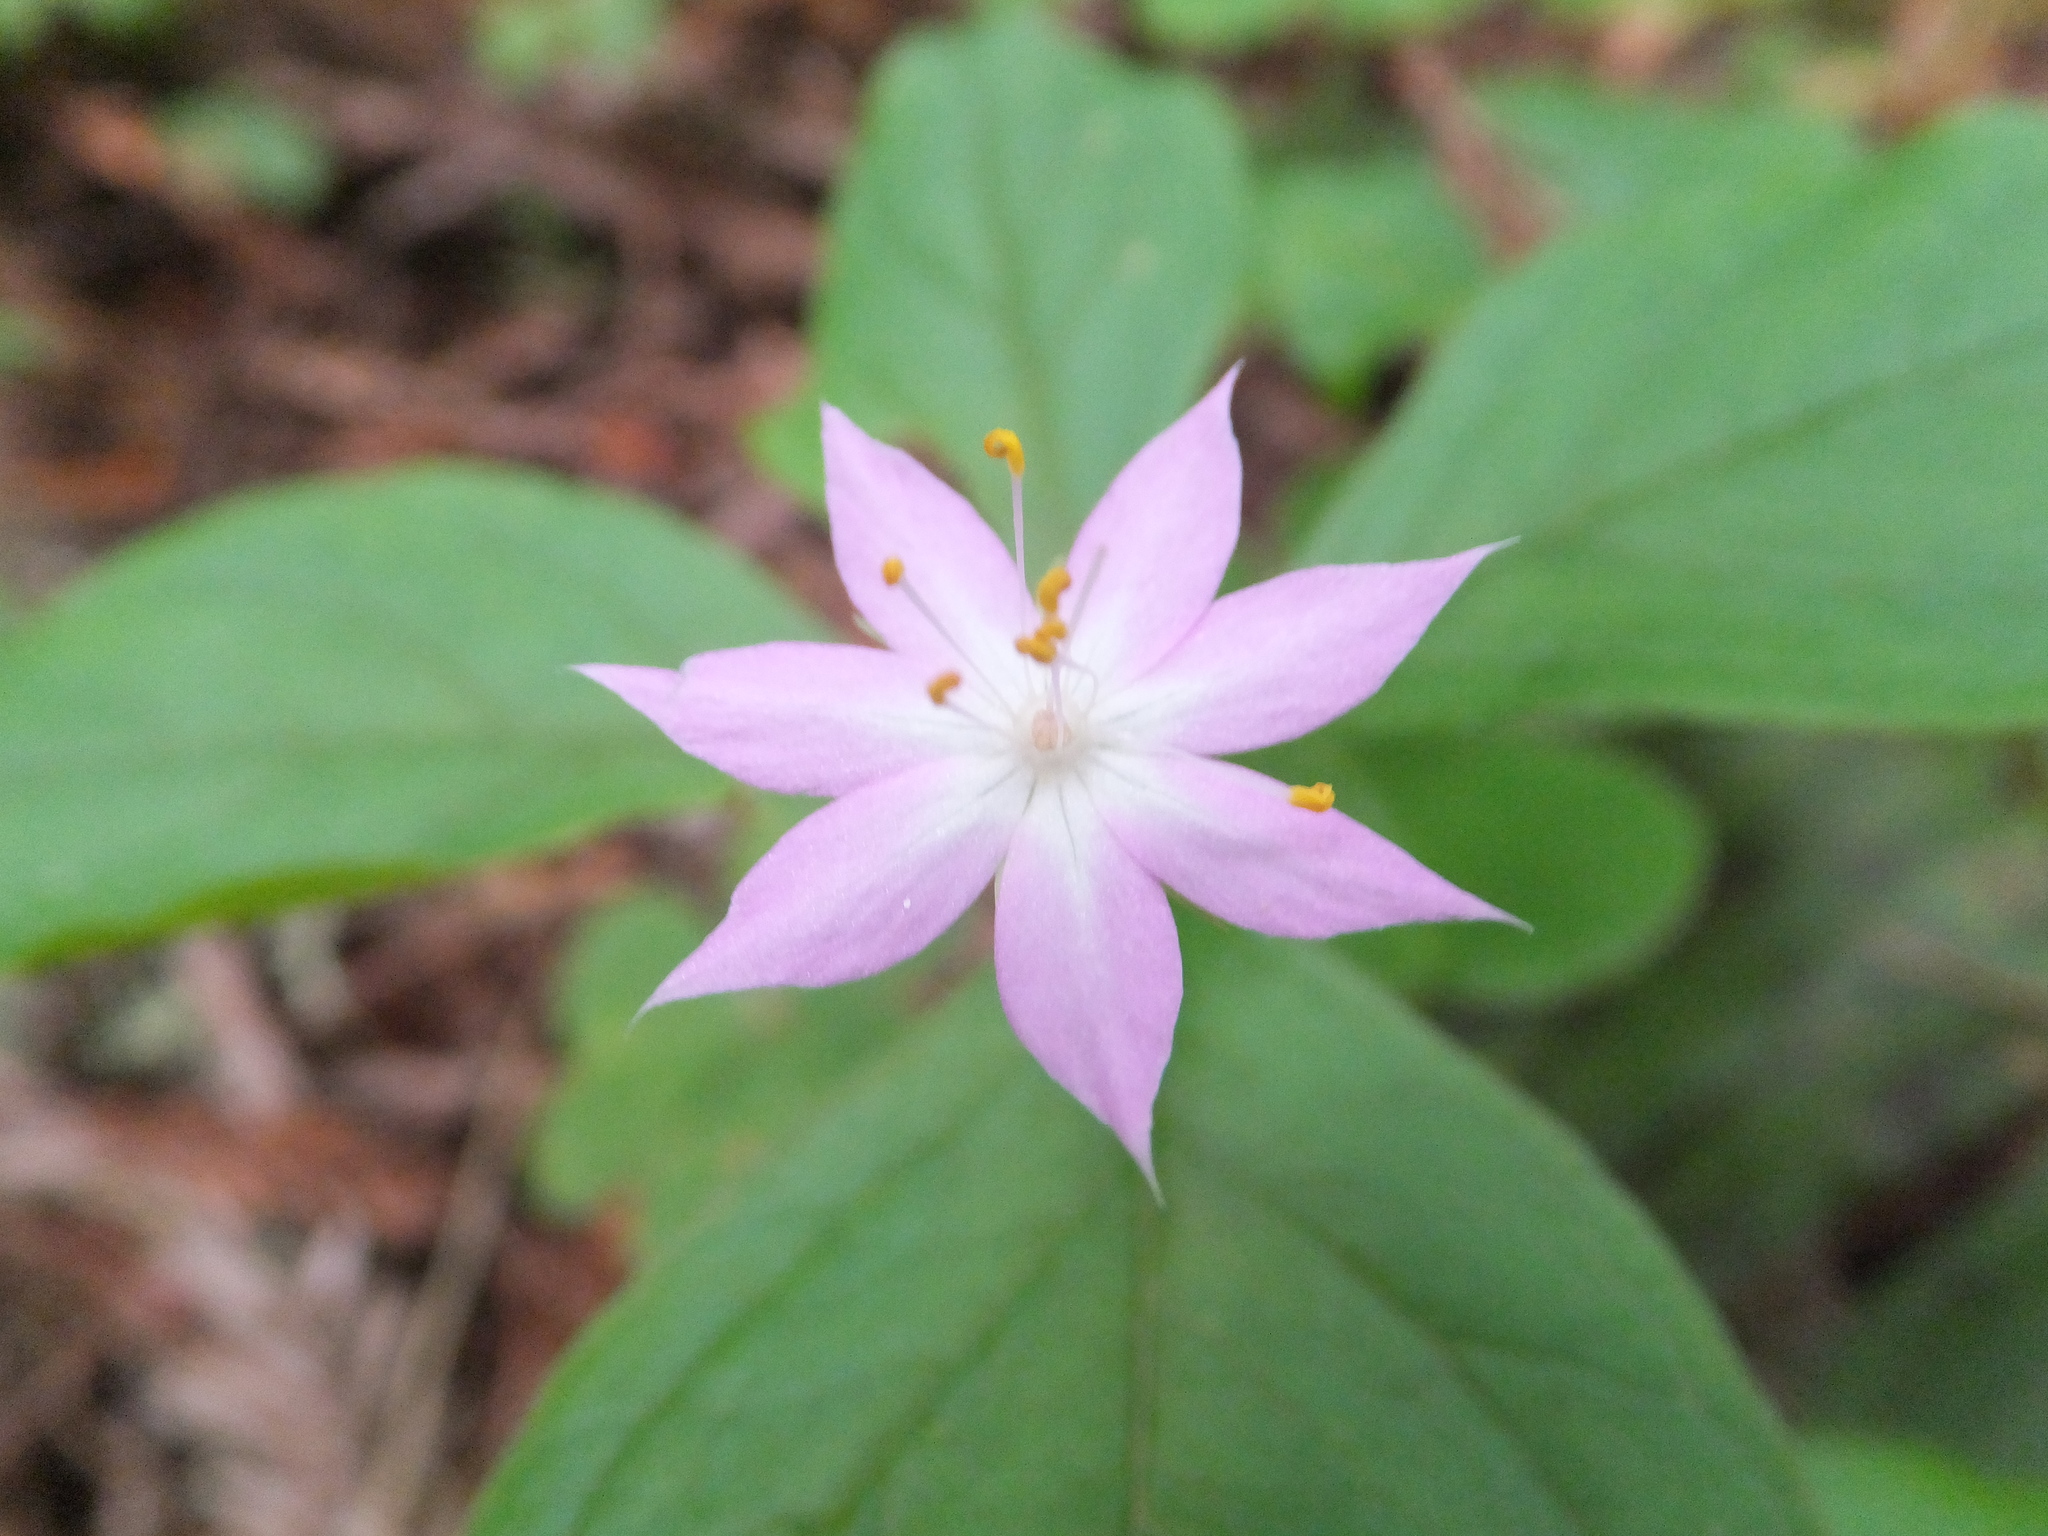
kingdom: Plantae
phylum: Tracheophyta
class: Magnoliopsida
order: Ericales
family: Primulaceae
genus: Lysimachia
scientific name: Lysimachia latifolia
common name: Pacific starflower
